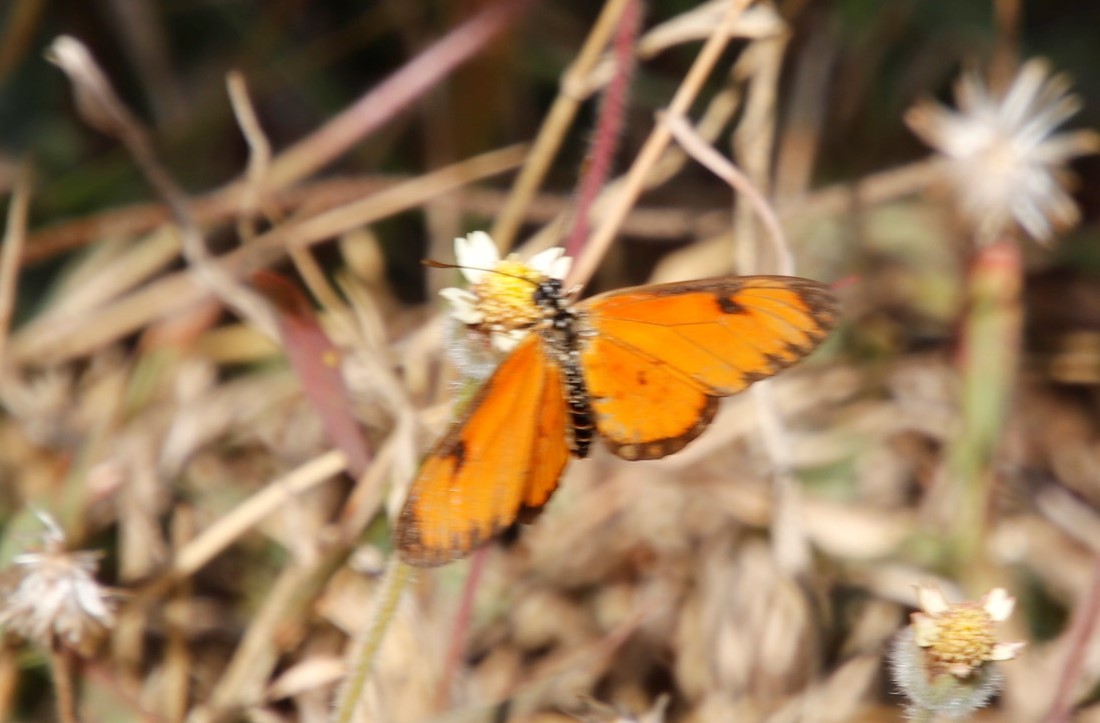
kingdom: Animalia
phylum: Arthropoda
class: Insecta
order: Lepidoptera
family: Nymphalidae
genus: Acraea
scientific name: Acraea Telchinia serena
